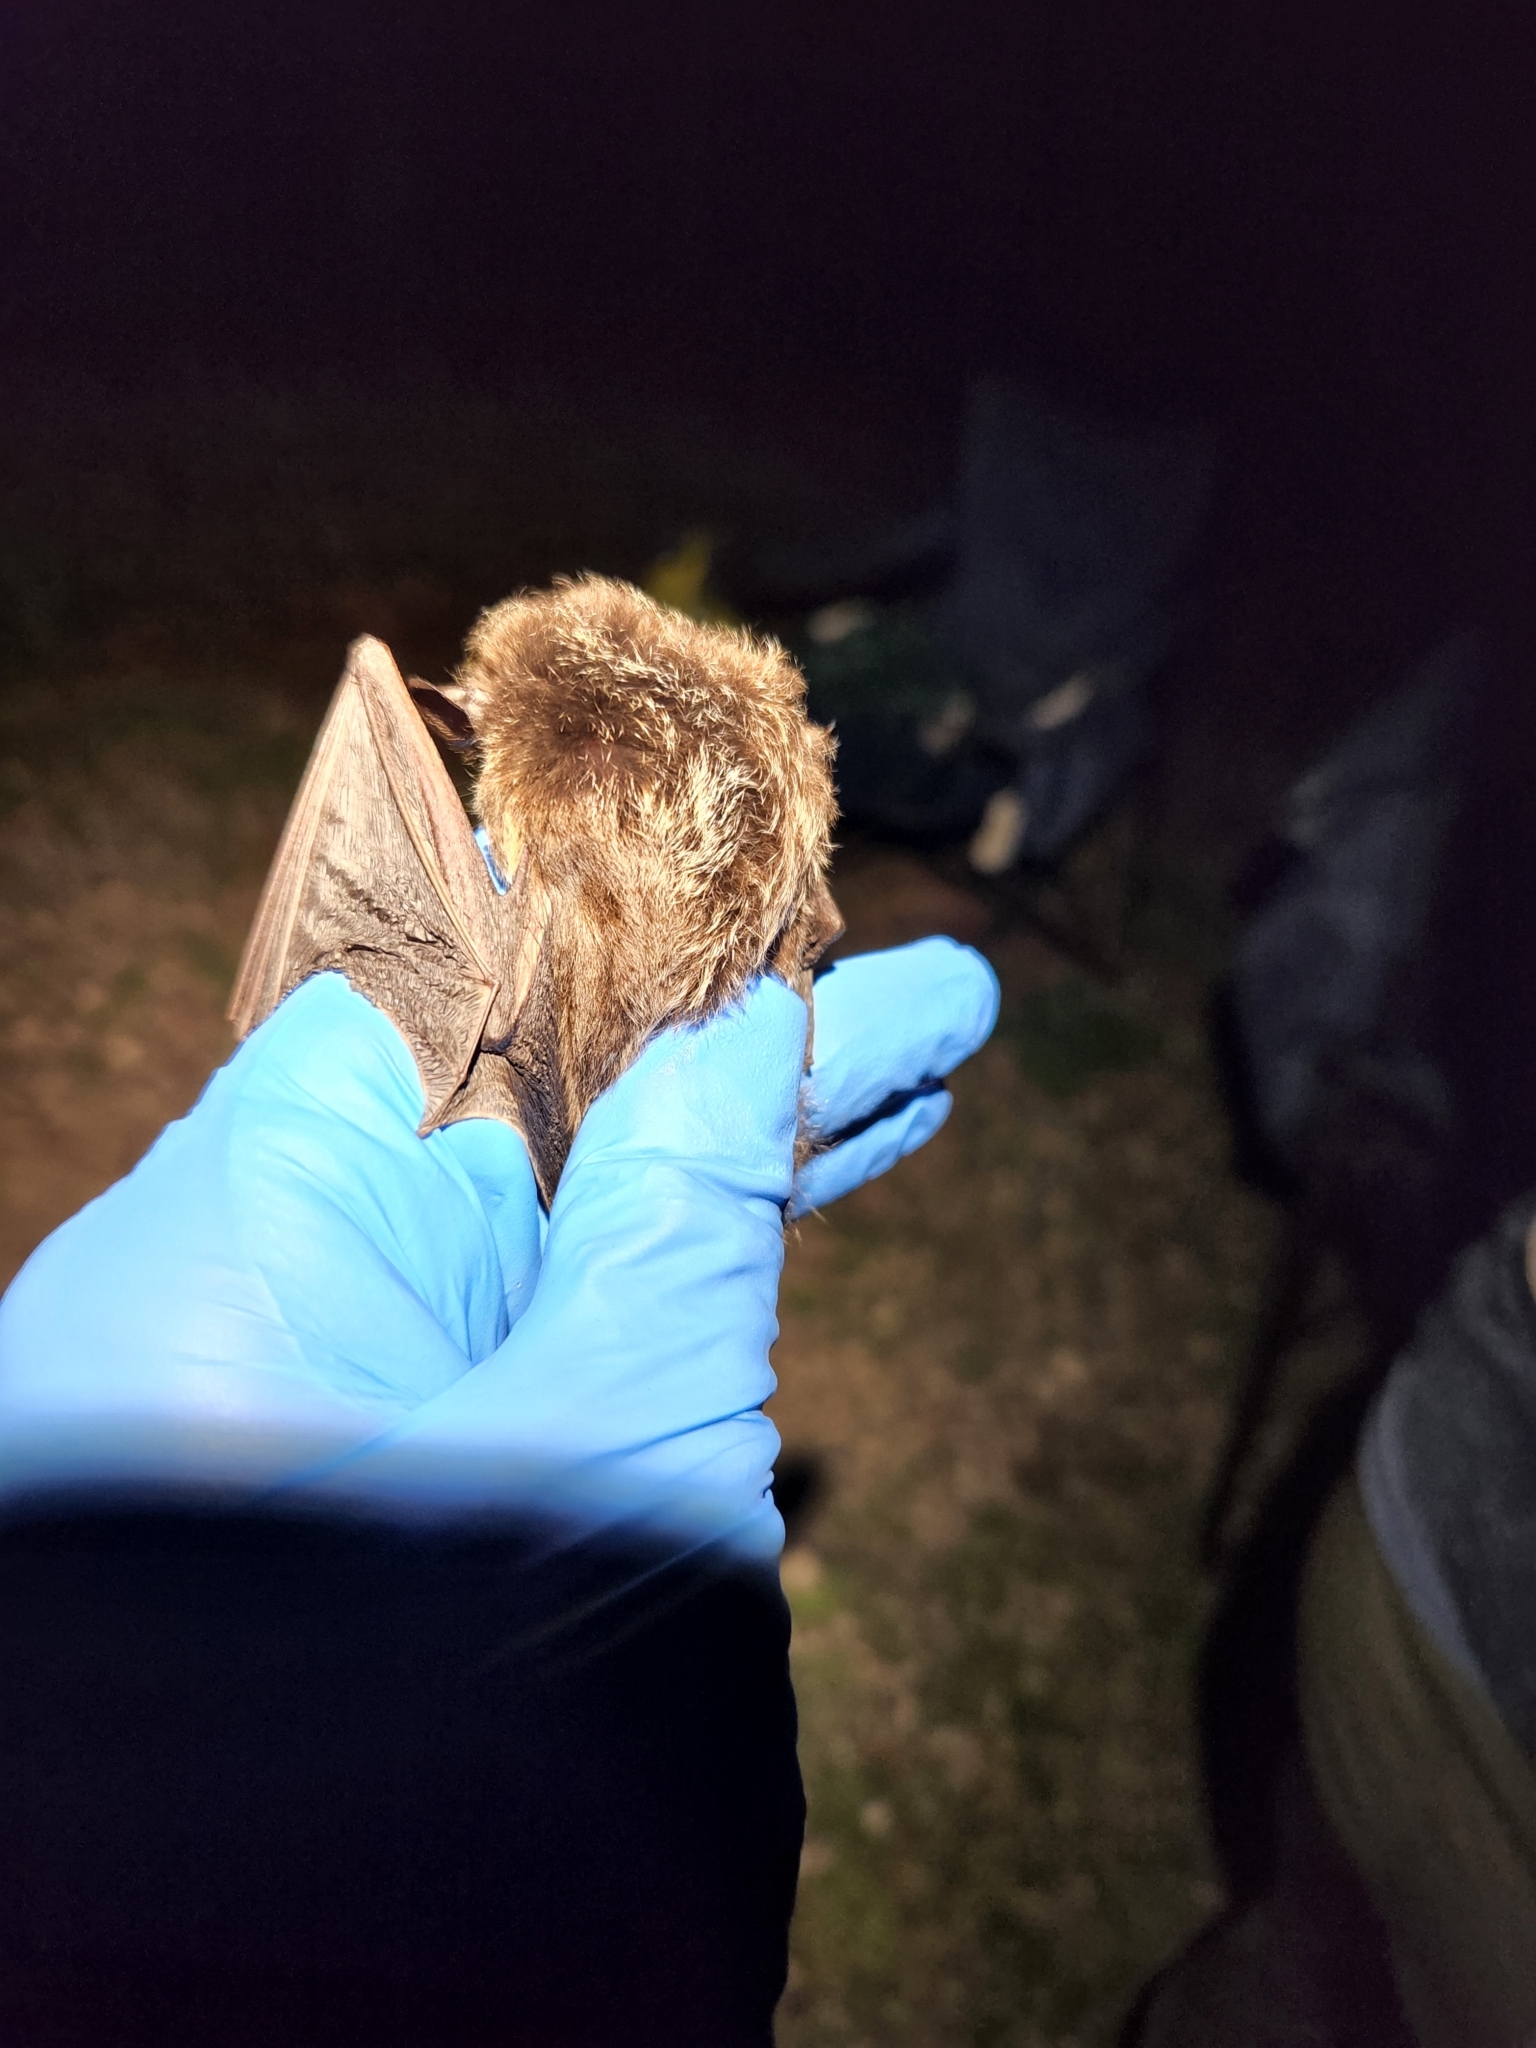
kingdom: Animalia
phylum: Chordata
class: Mammalia
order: Chiroptera
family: Vespertilionidae
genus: Lasionycteris
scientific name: Lasionycteris noctivagans
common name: Silver-haired bat
